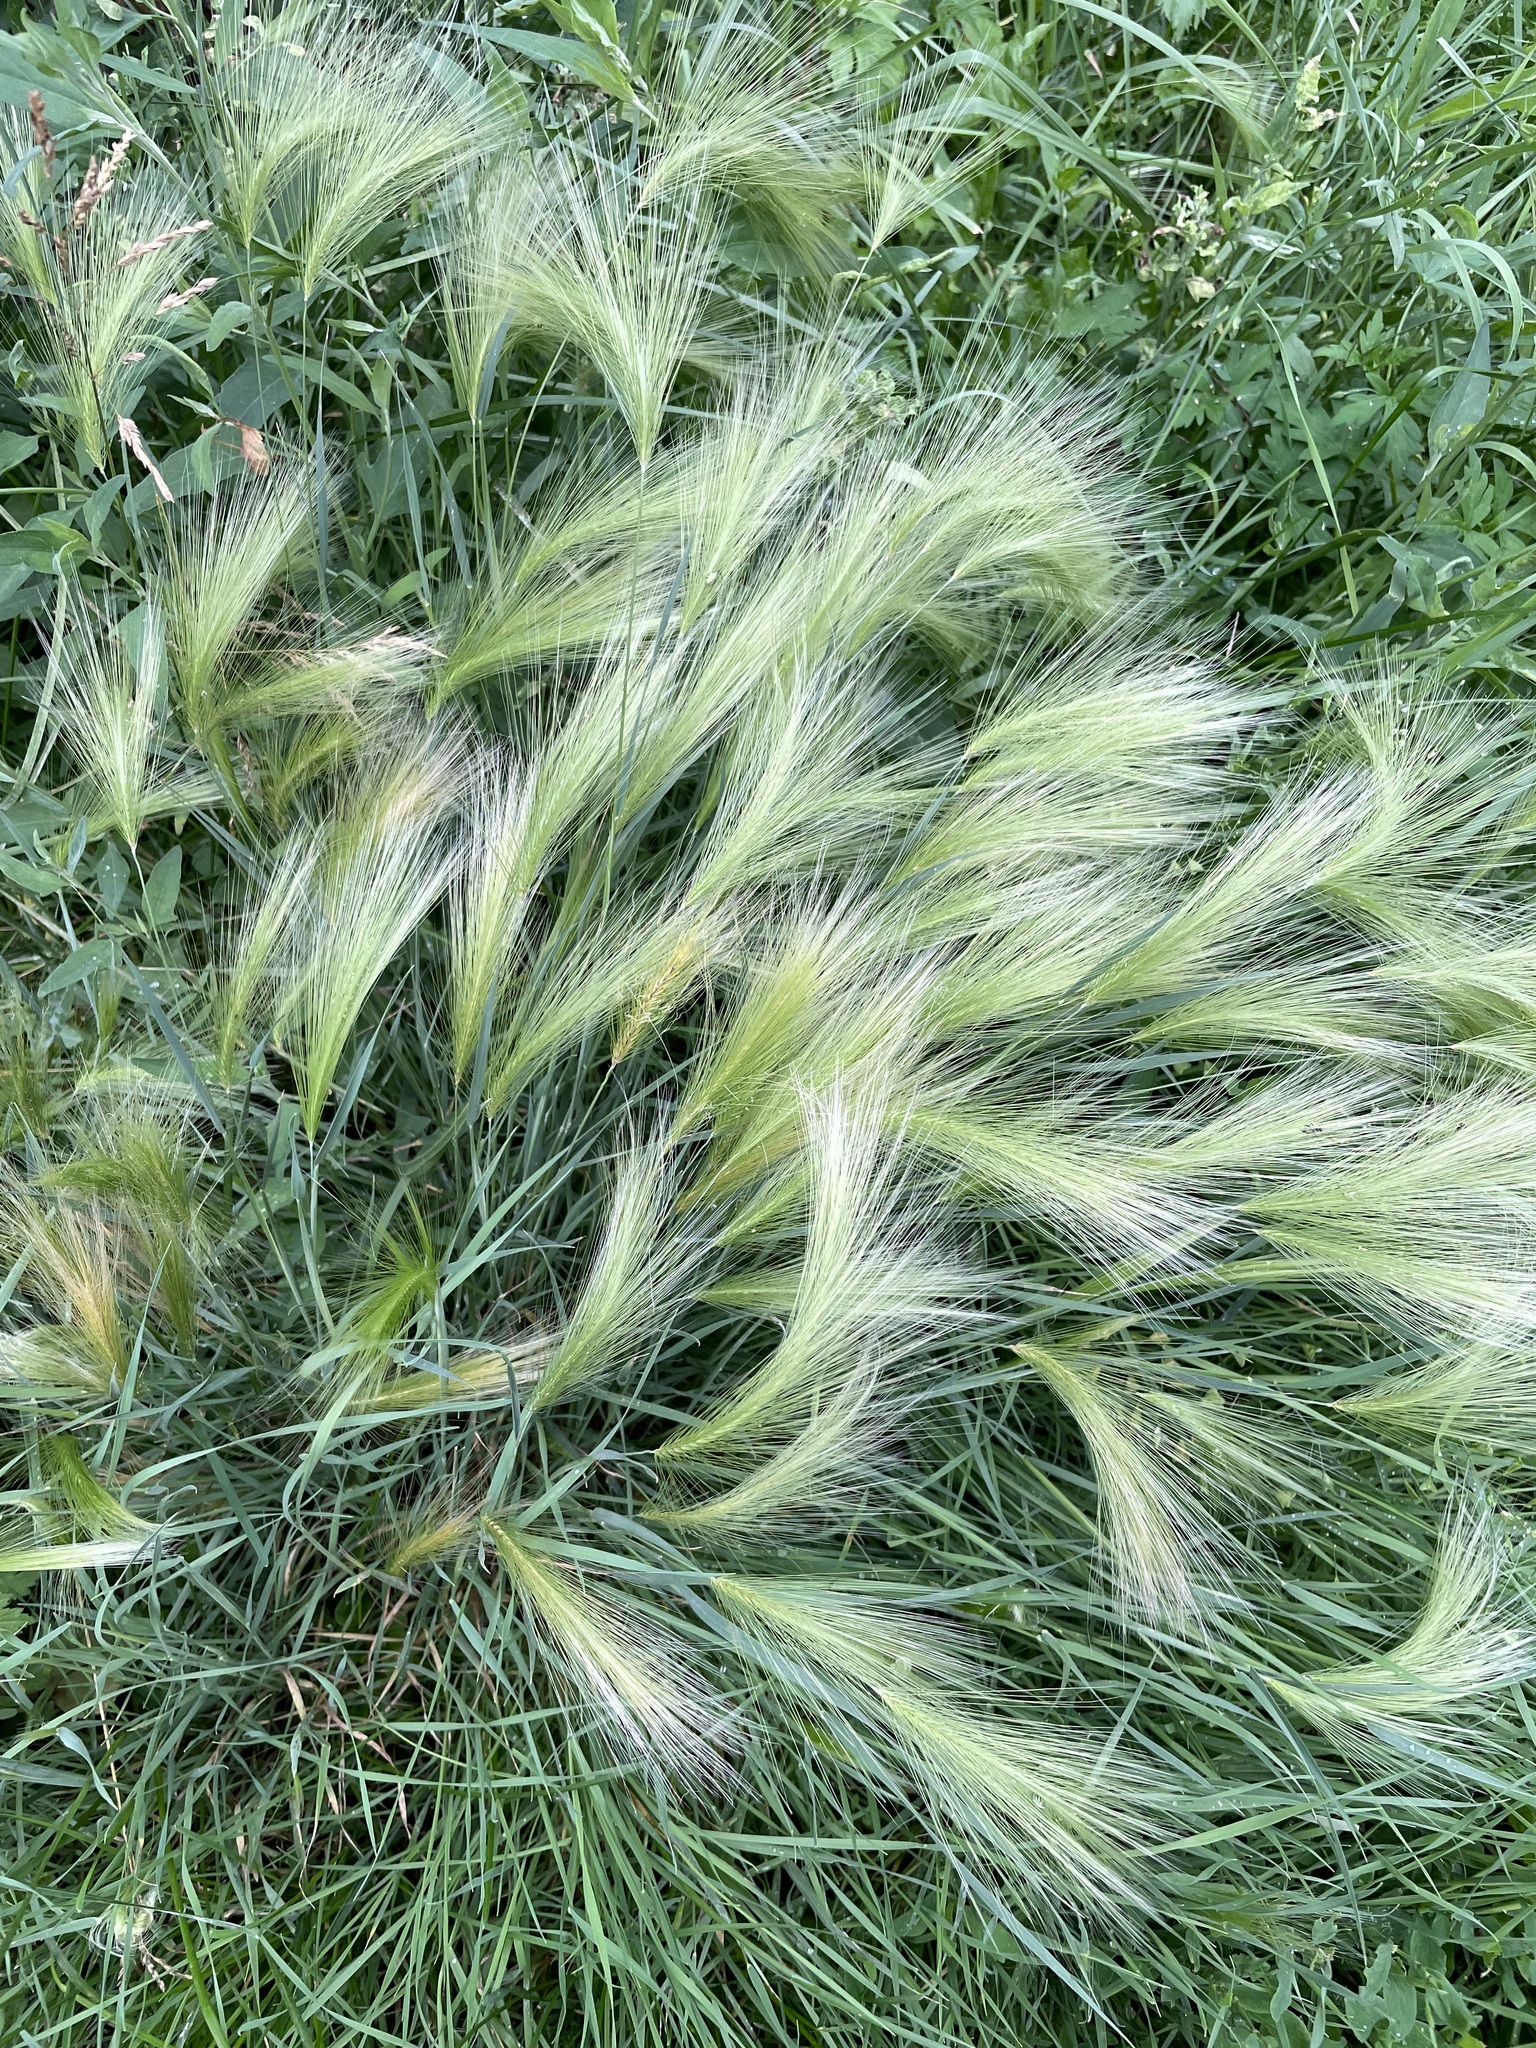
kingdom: Plantae
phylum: Tracheophyta
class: Liliopsida
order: Poales
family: Poaceae
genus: Hordeum
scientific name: Hordeum jubatum
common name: Foxtail barley
